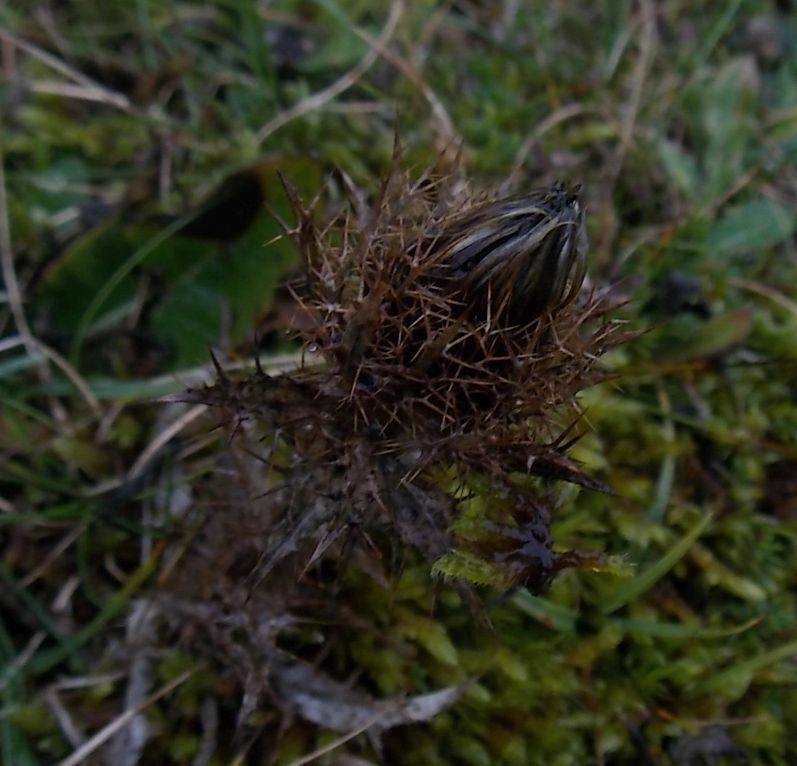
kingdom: Plantae
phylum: Tracheophyta
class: Magnoliopsida
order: Asterales
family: Asteraceae
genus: Carlina
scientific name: Carlina vulgaris
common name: Carline thistle
